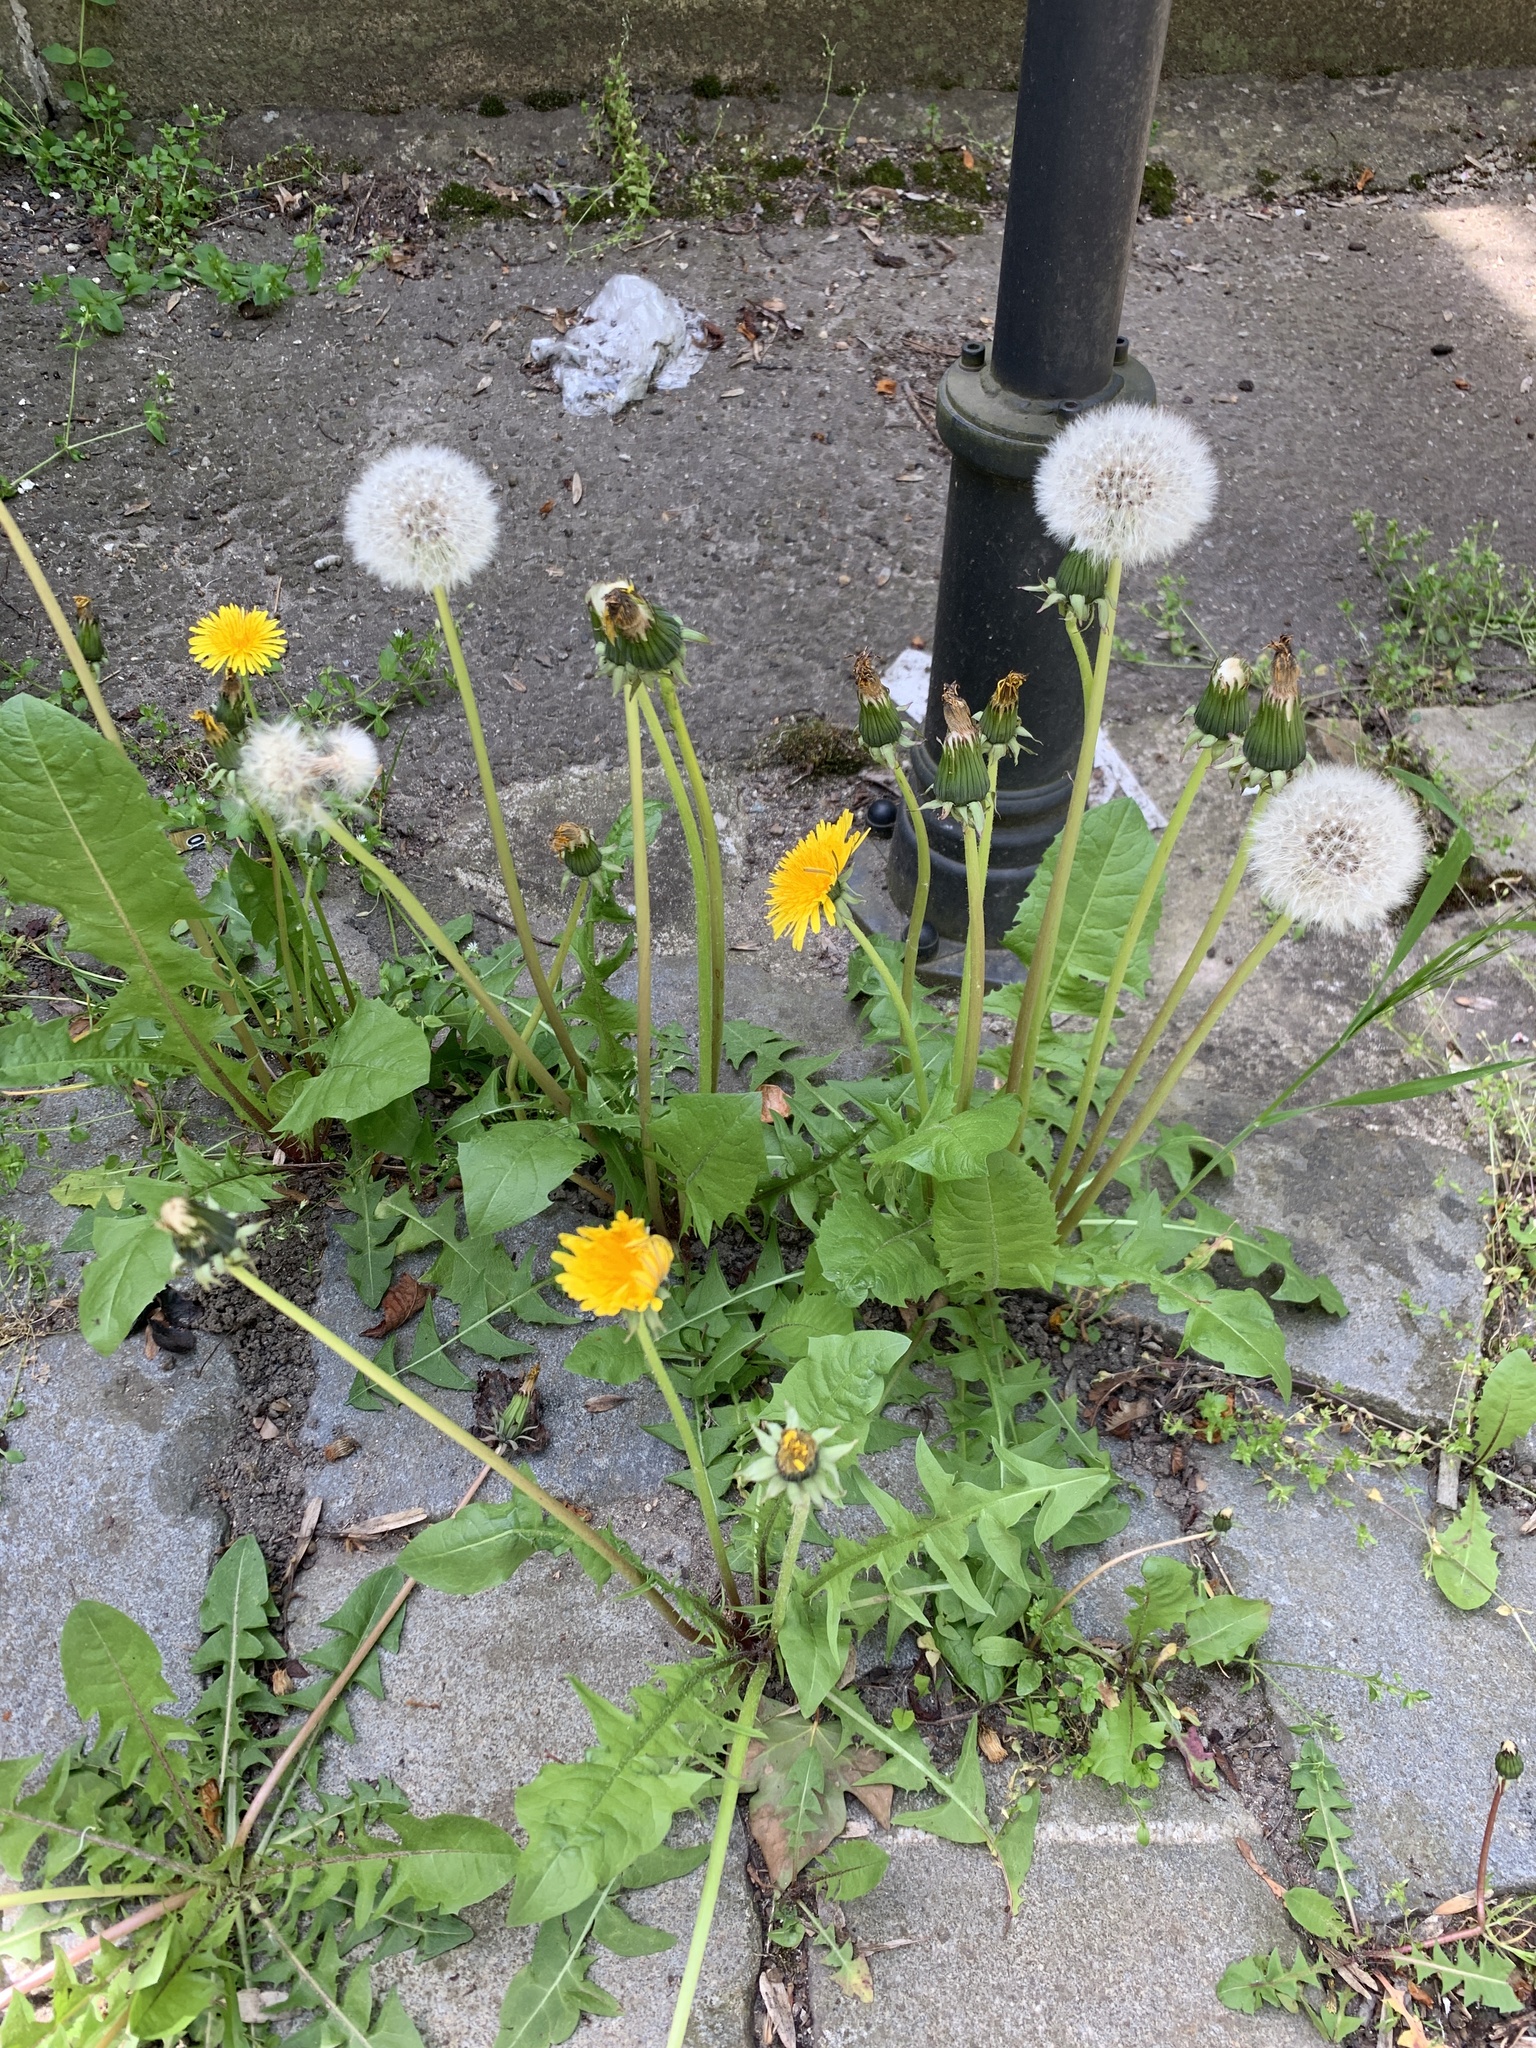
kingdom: Plantae
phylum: Tracheophyta
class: Magnoliopsida
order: Asterales
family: Asteraceae
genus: Taraxacum
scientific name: Taraxacum officinale
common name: Common dandelion
